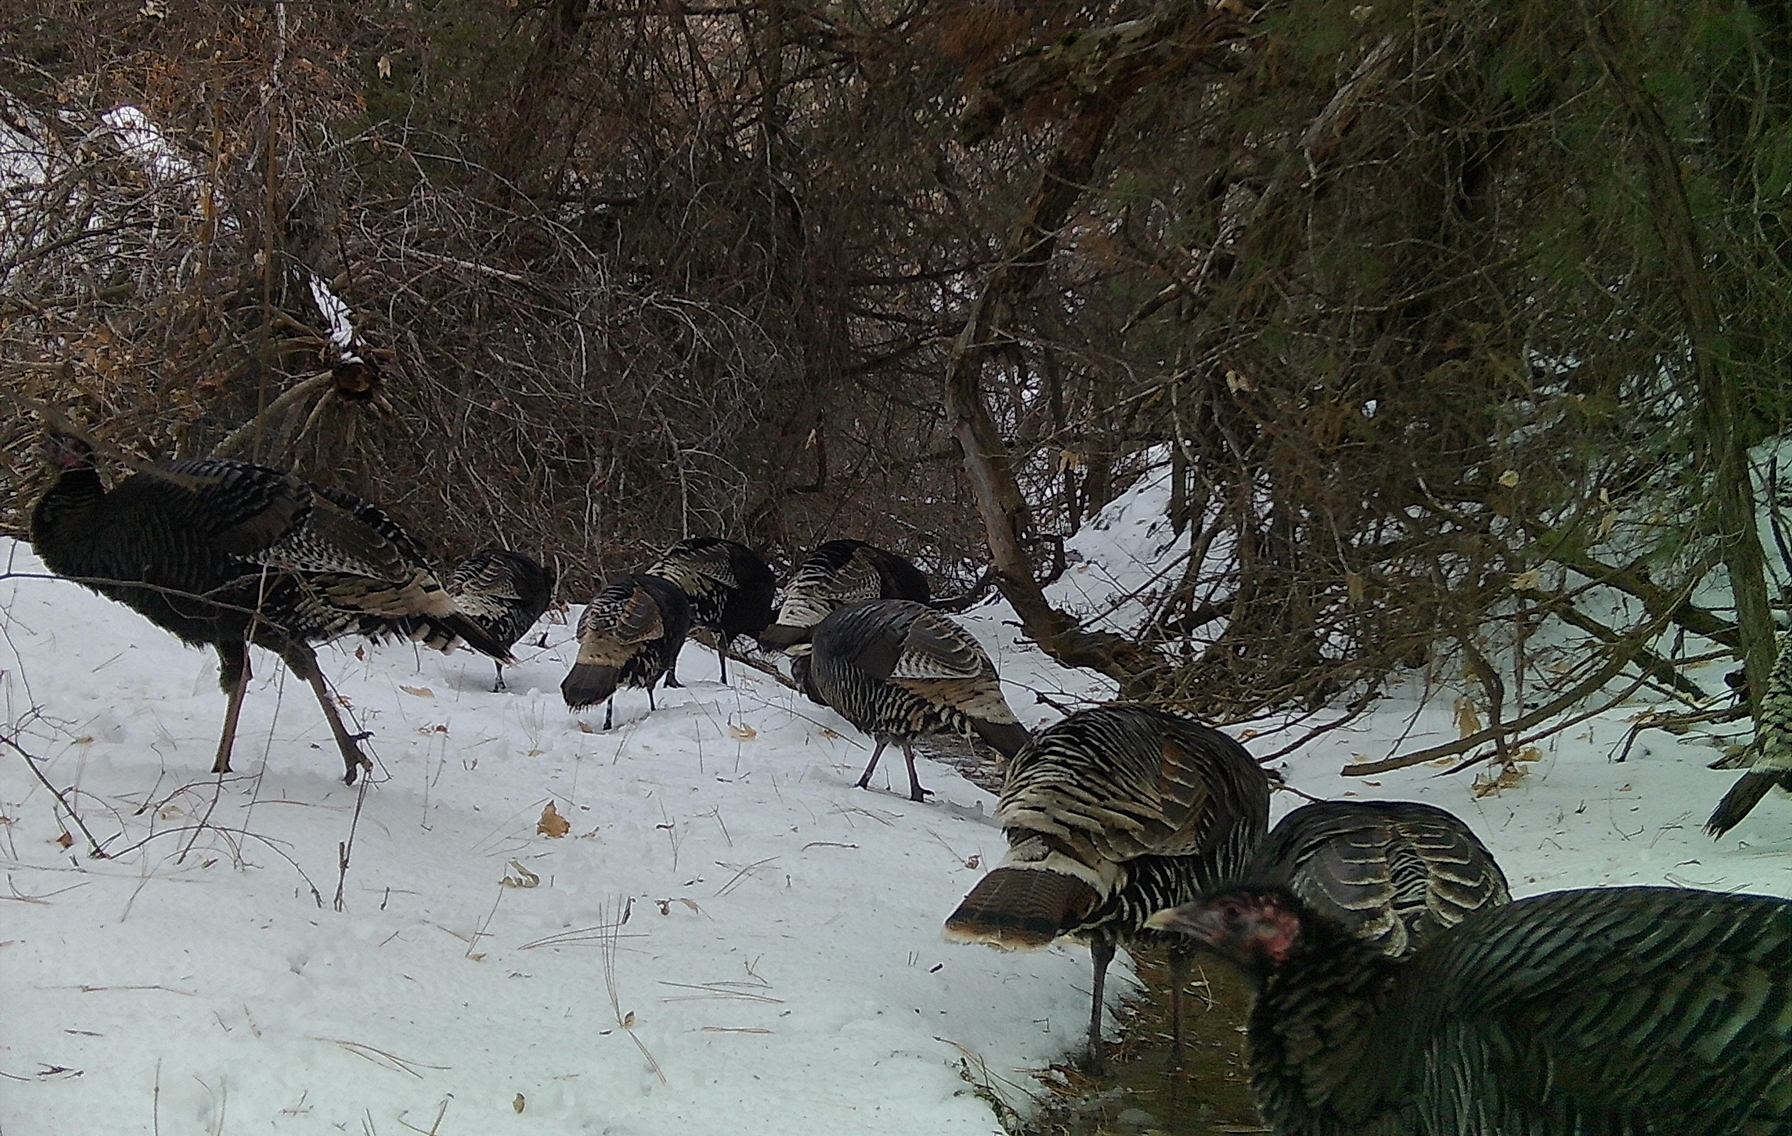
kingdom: Animalia
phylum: Chordata
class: Aves
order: Galliformes
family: Phasianidae
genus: Meleagris
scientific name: Meleagris gallopavo
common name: Wild turkey
